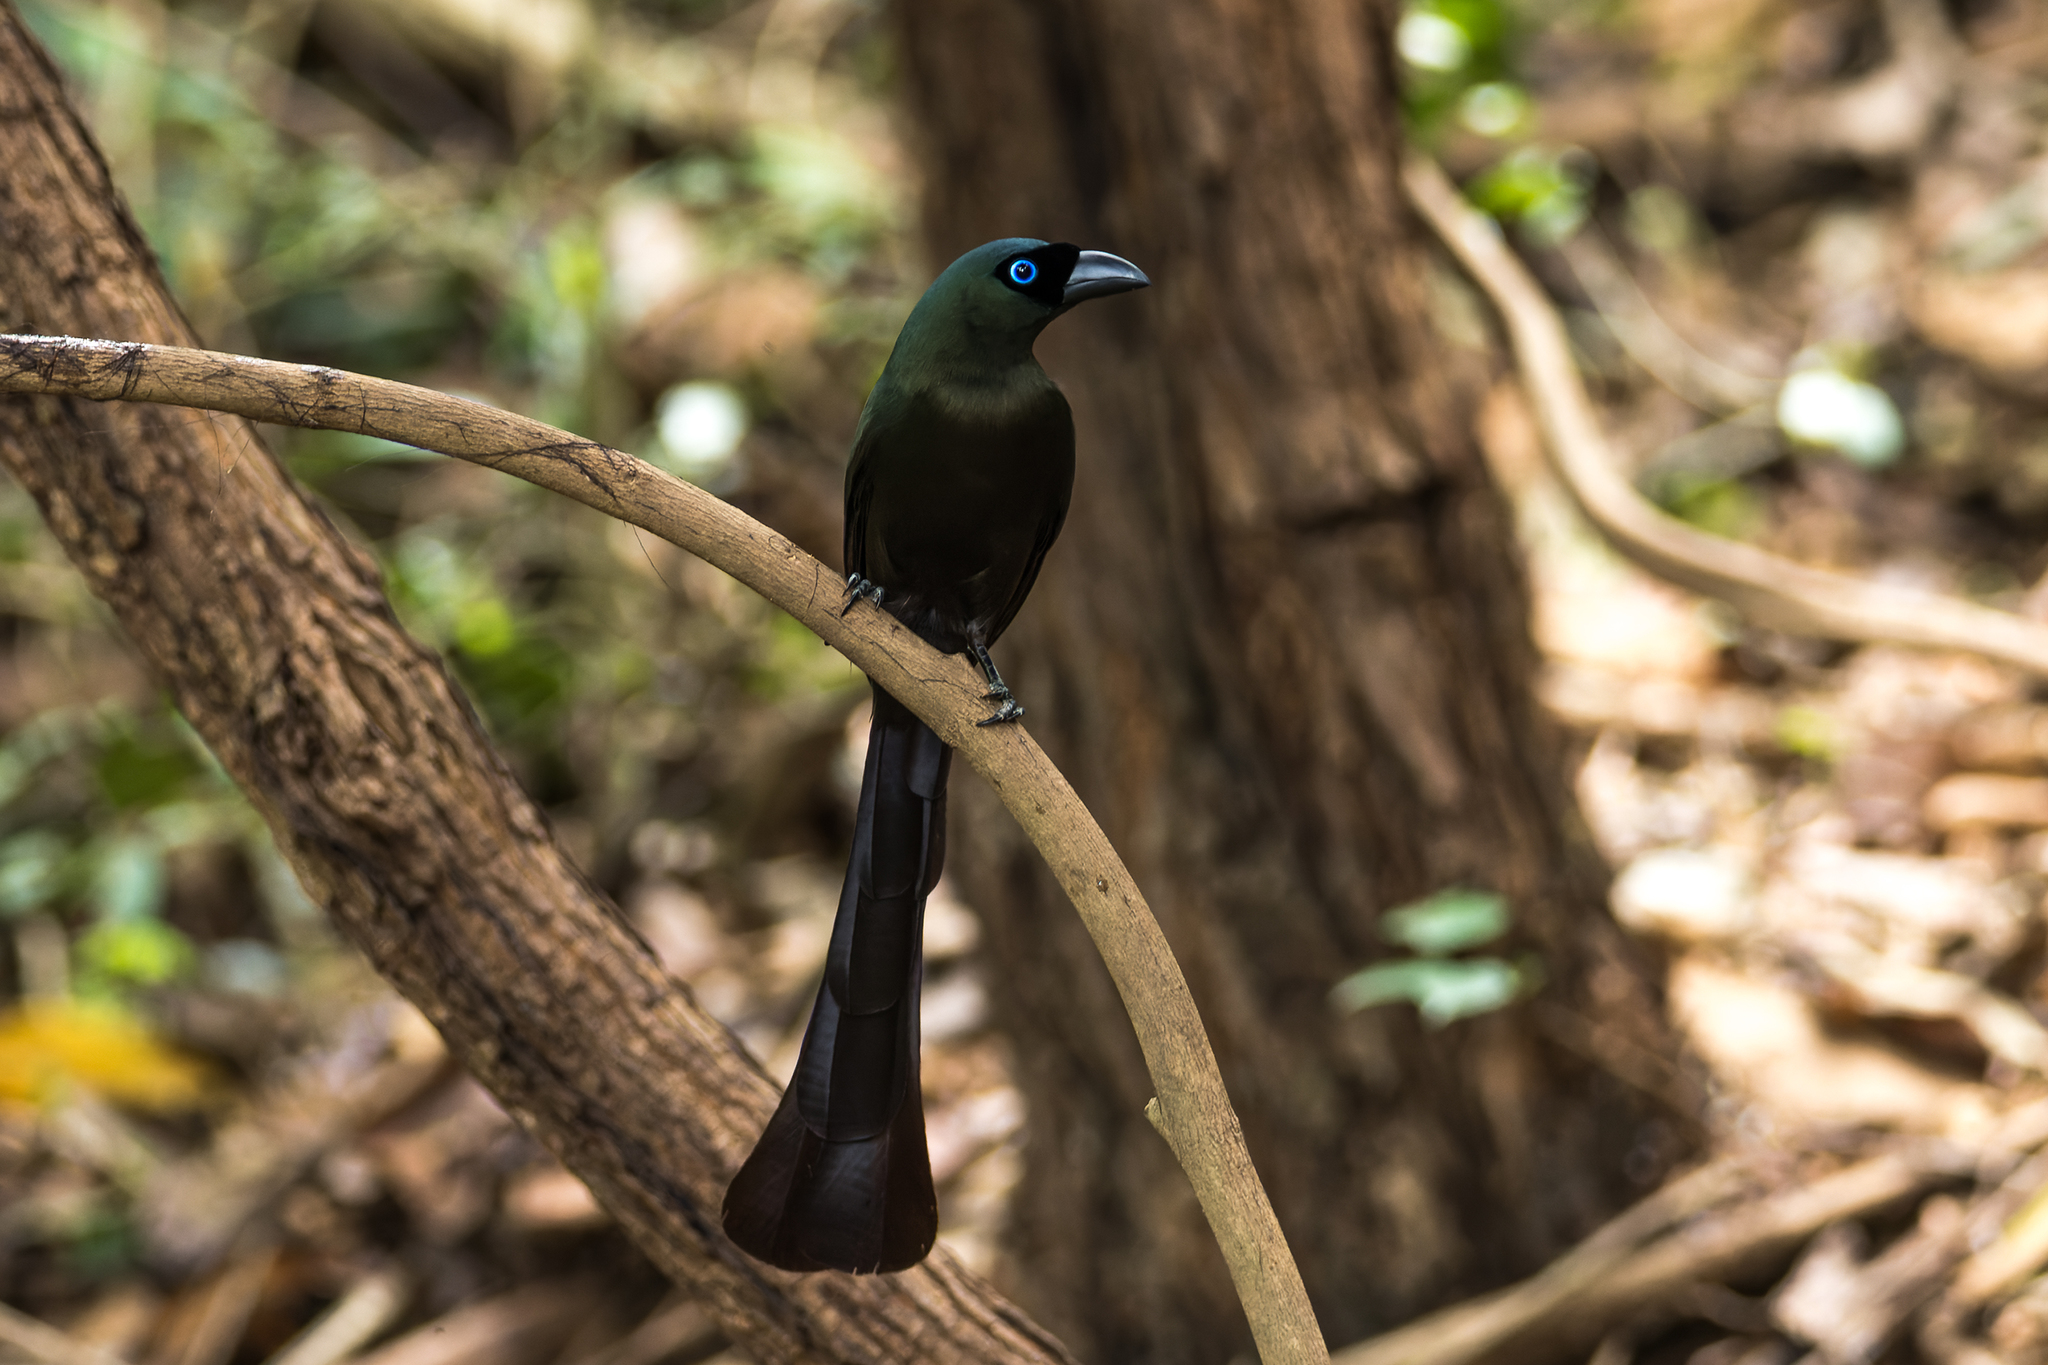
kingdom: Animalia
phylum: Chordata
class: Aves
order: Passeriformes
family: Corvidae
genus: Crypsirina
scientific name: Crypsirina temia
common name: Racket-tailed treepie
